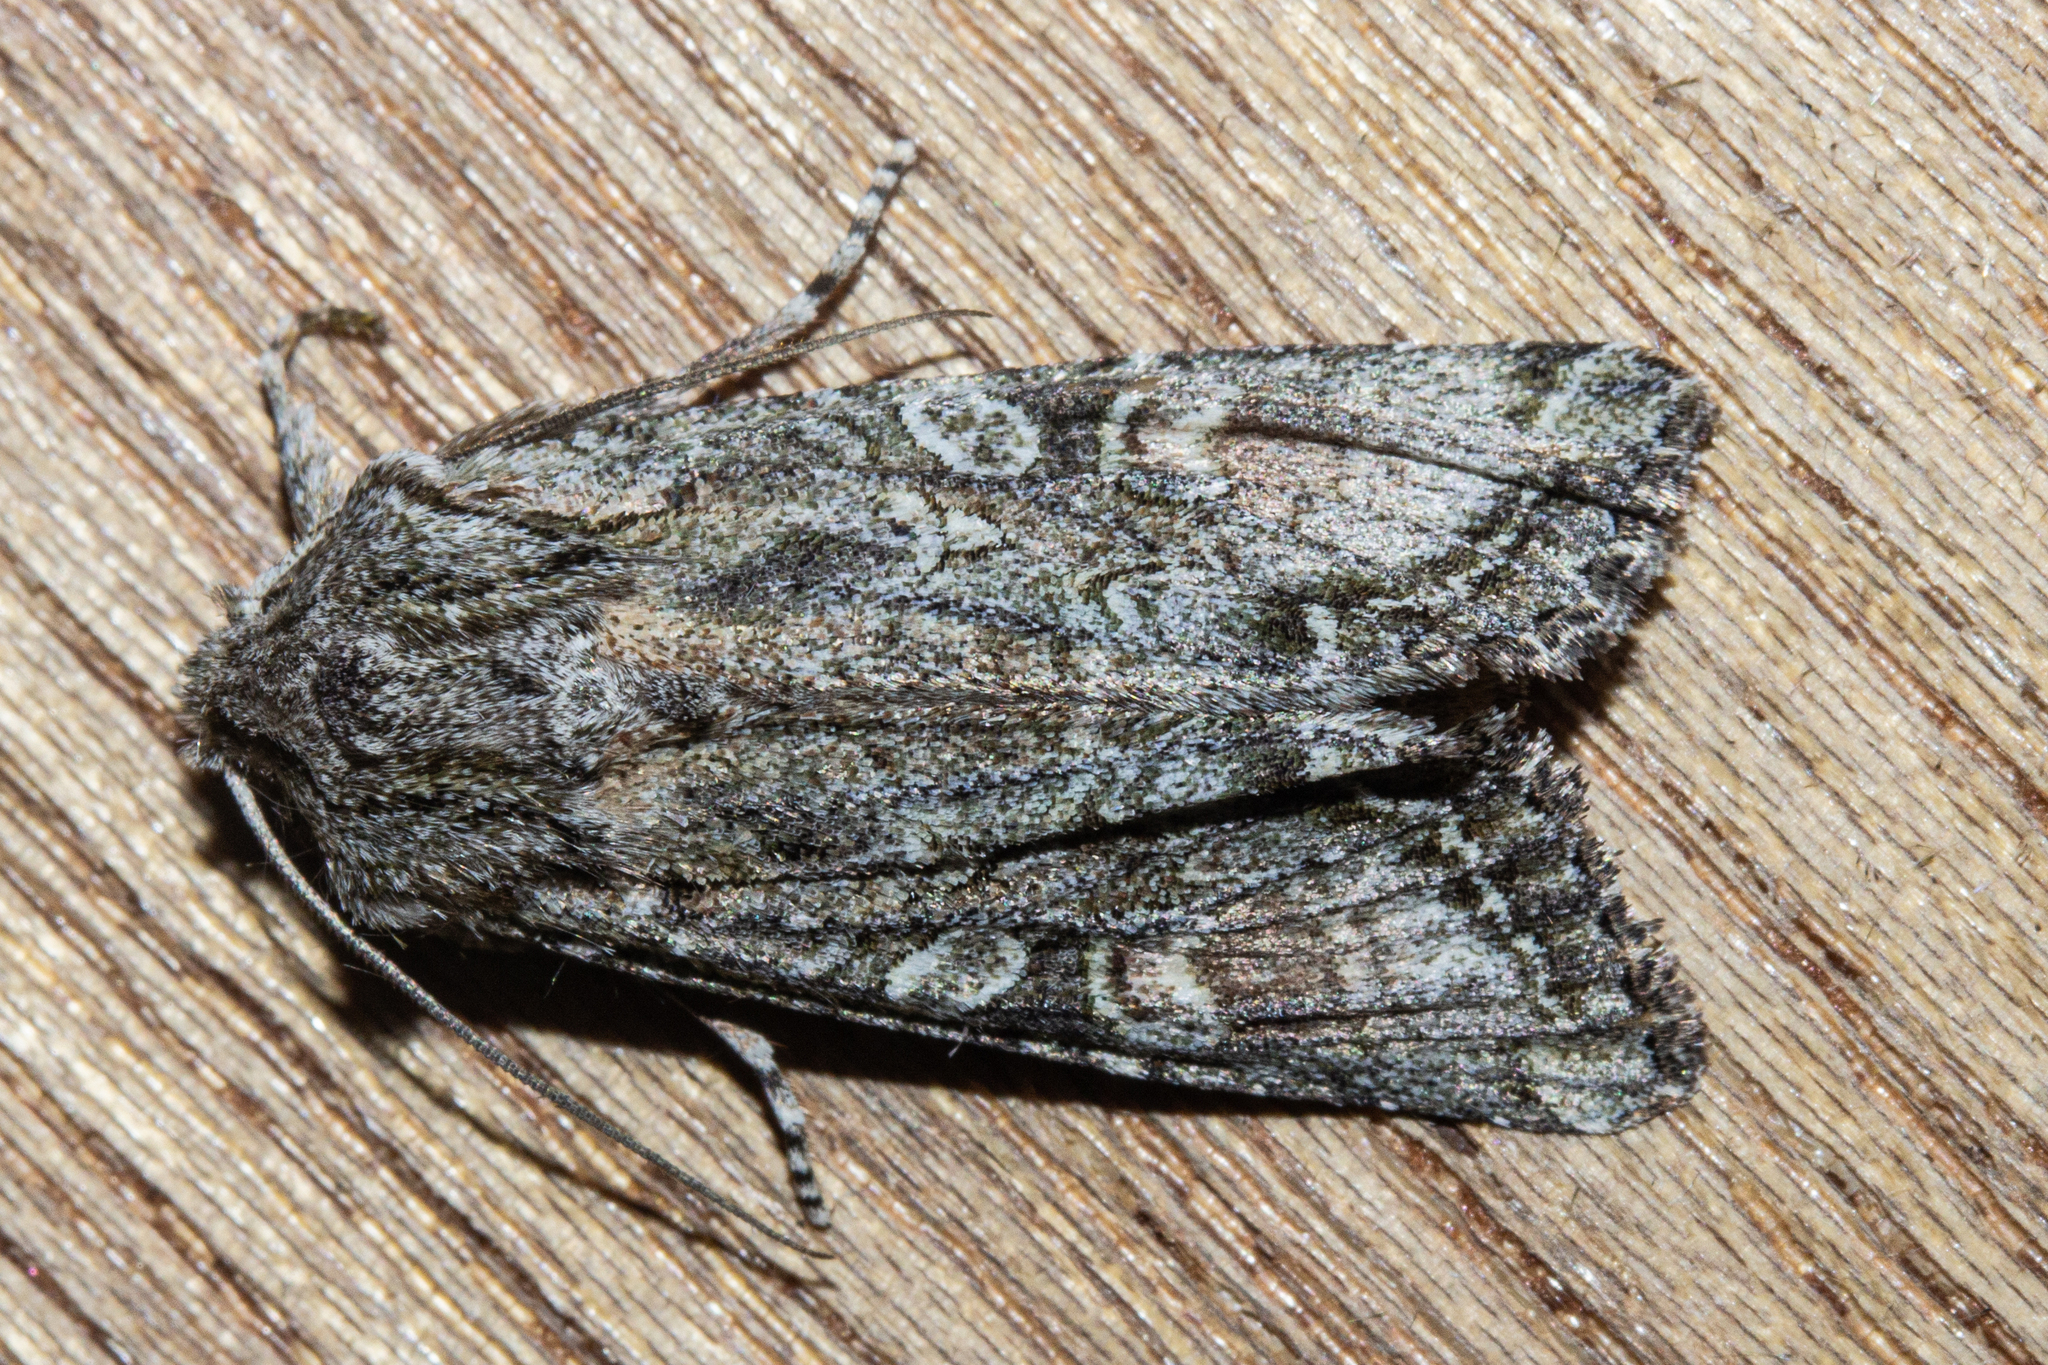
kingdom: Animalia
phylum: Arthropoda
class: Insecta
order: Lepidoptera
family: Noctuidae
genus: Ichneutica
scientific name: Ichneutica mutans
